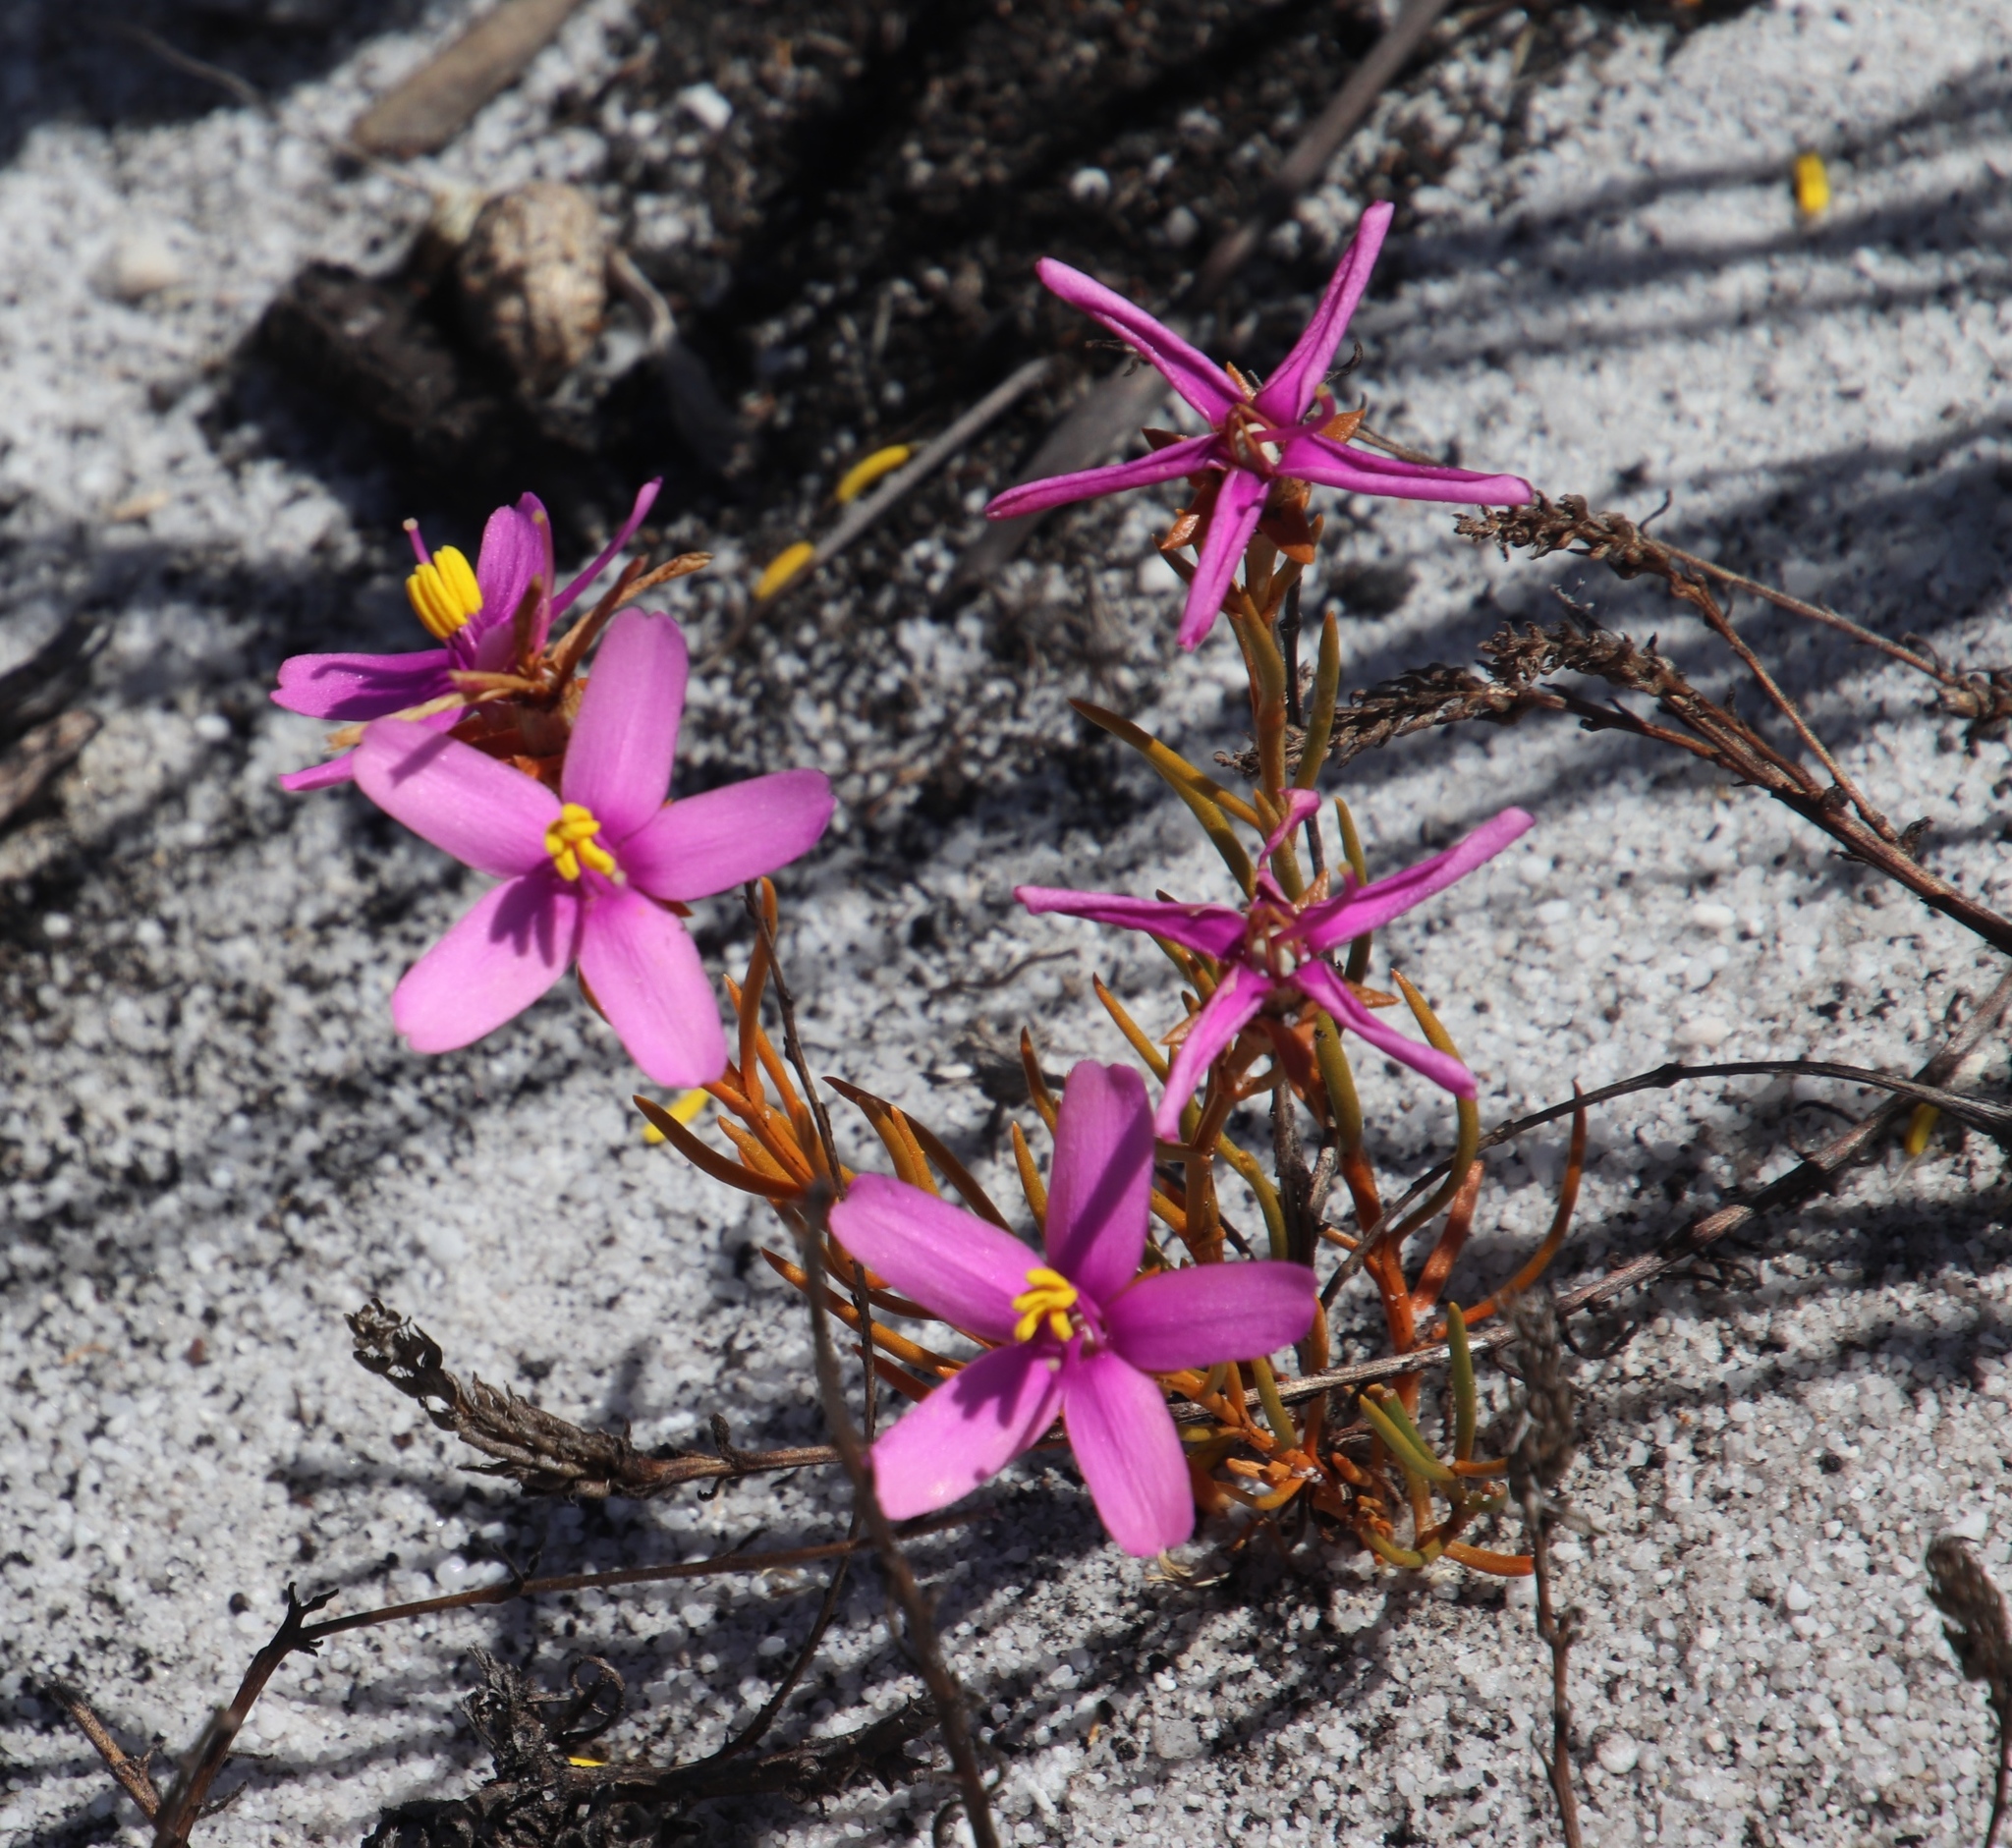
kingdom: Plantae
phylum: Tracheophyta
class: Magnoliopsida
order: Gentianales
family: Gentianaceae
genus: Chironia
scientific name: Chironia linoides
